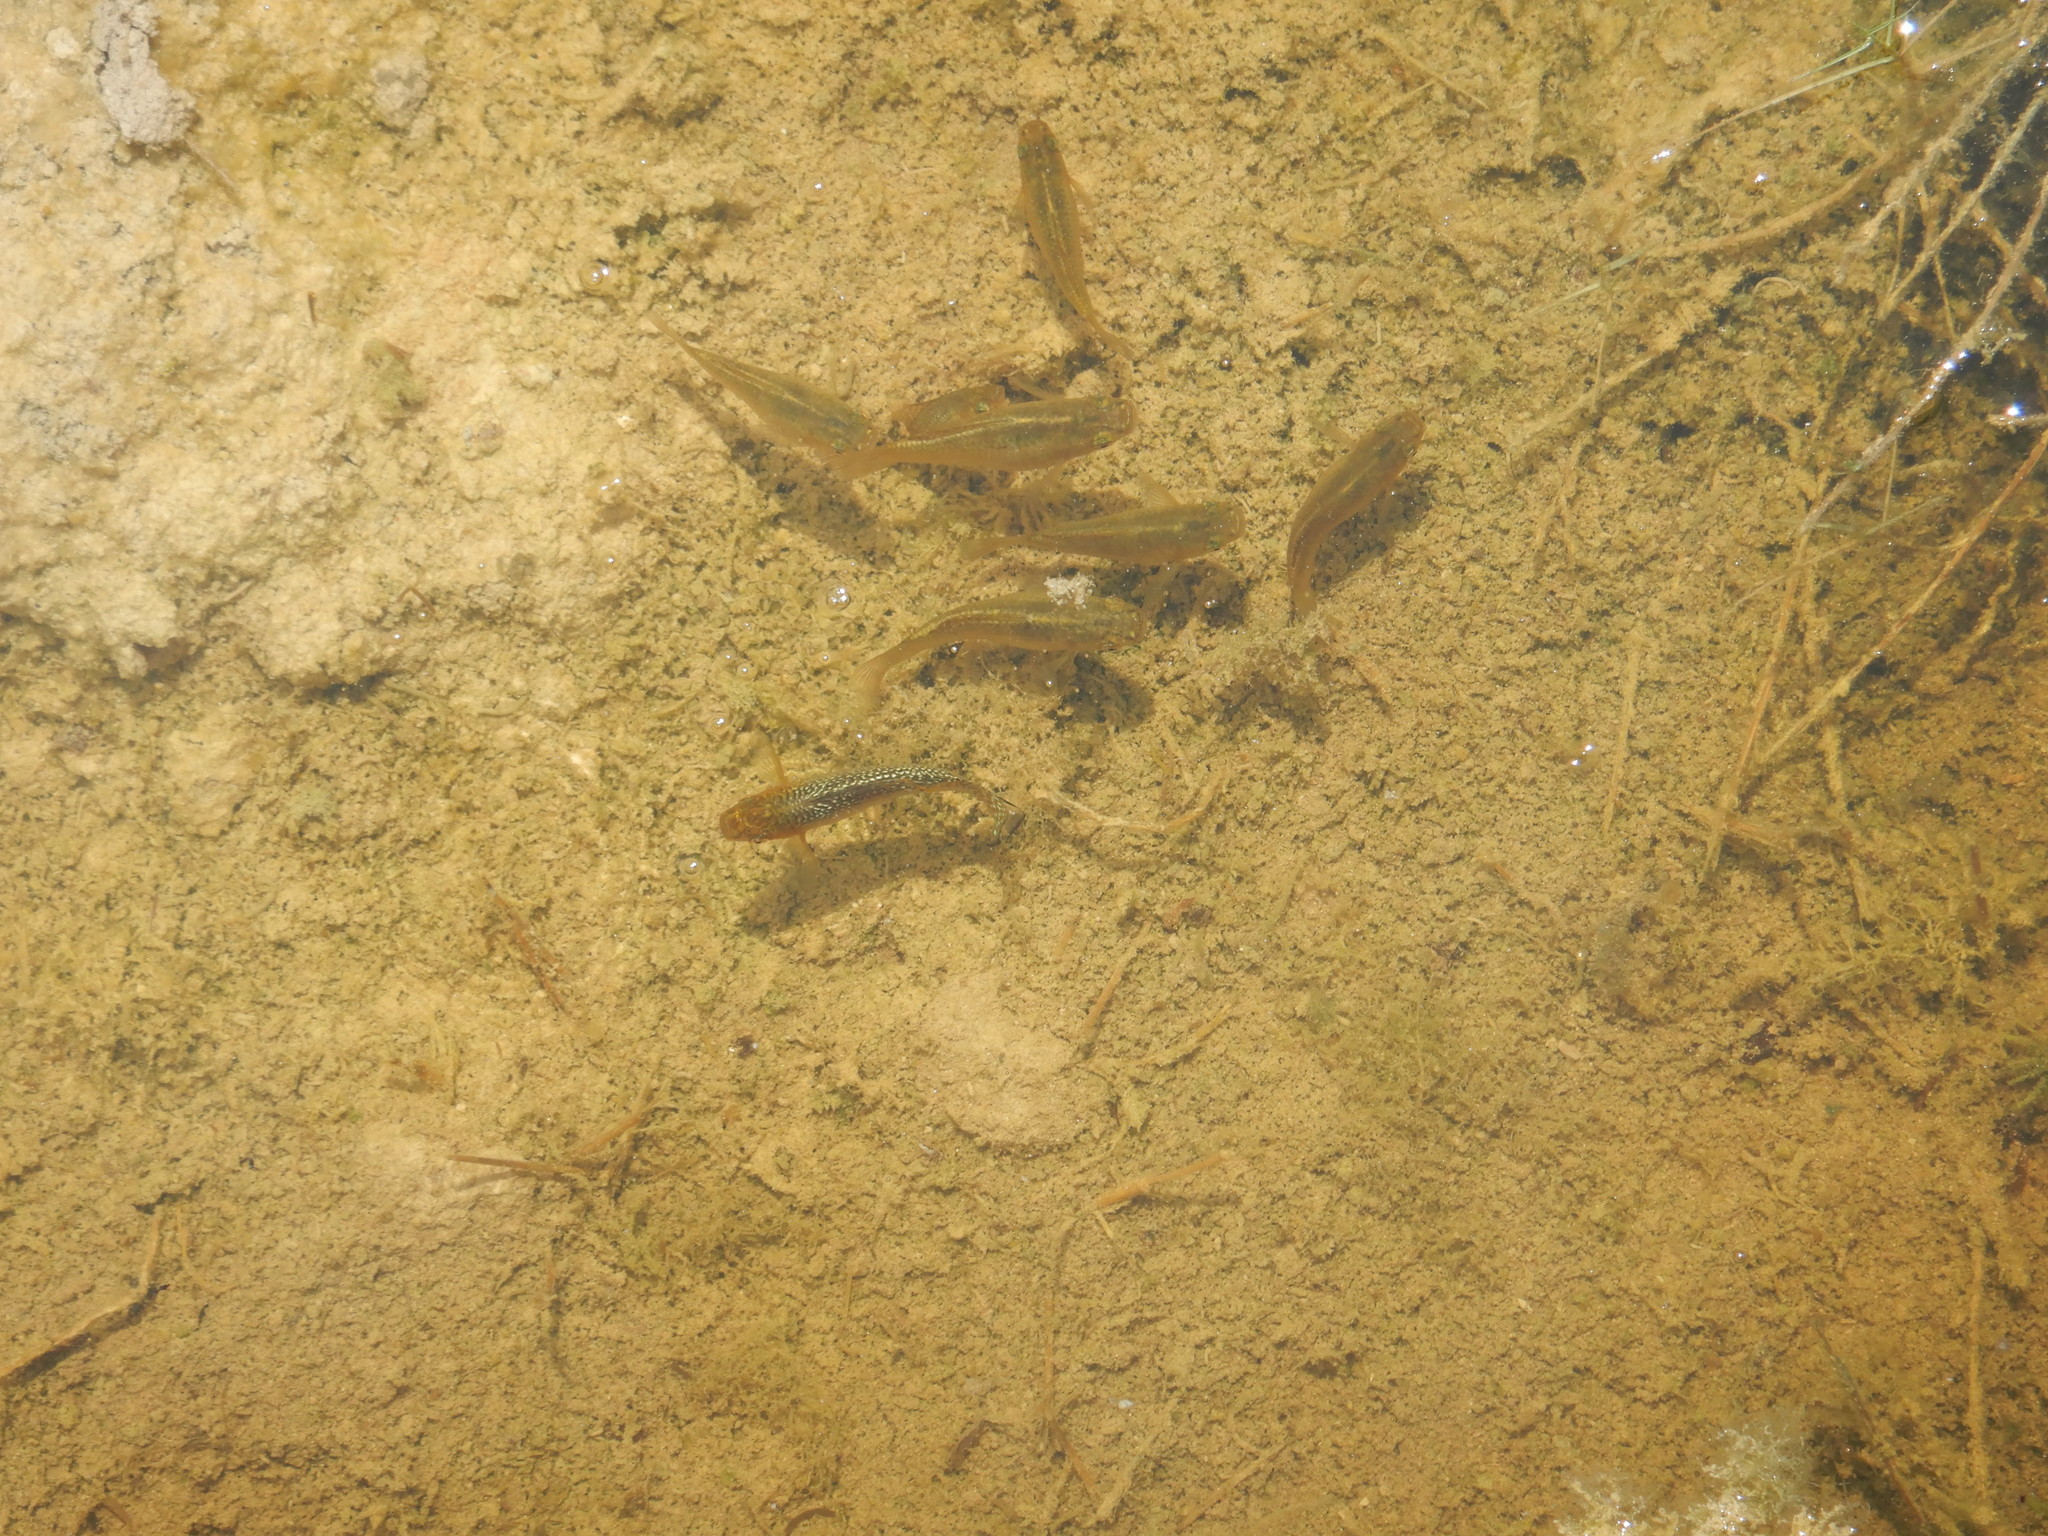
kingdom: Animalia
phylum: Chordata
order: Cyprinodontiformes
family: Poeciliidae
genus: Poecilia
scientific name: Poecilia velifera
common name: Sail-fin molly
